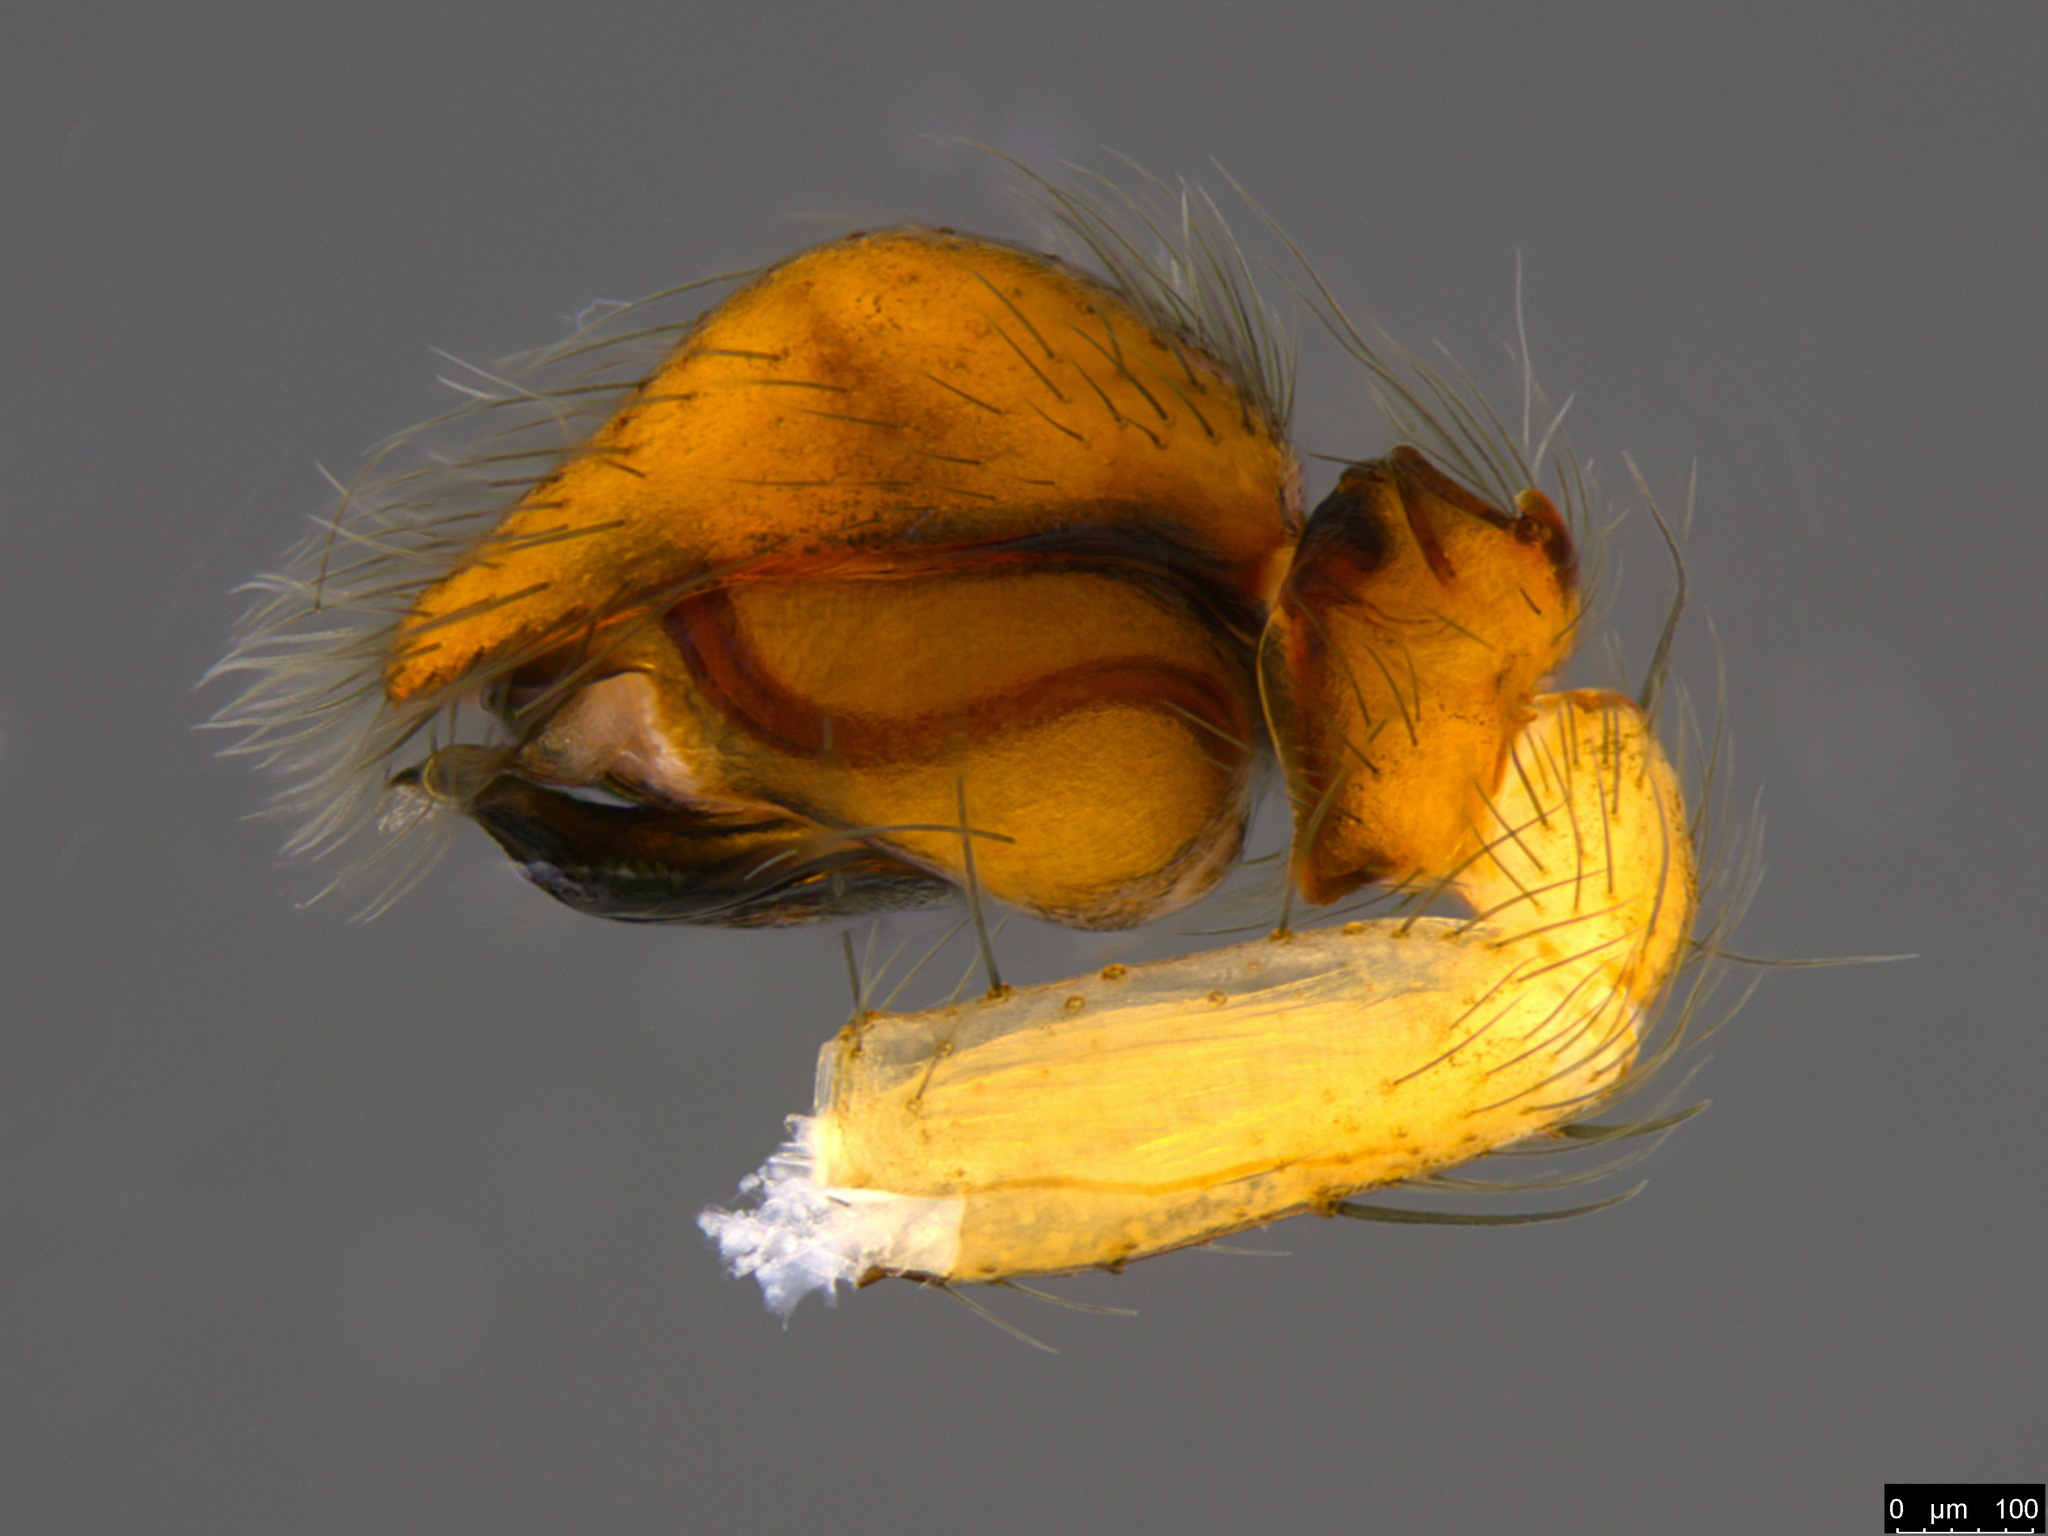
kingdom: Animalia
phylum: Arthropoda
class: Arachnida
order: Araneae
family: Desidae
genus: Badumna
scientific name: Badumna longinqua
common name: Gray house spider
